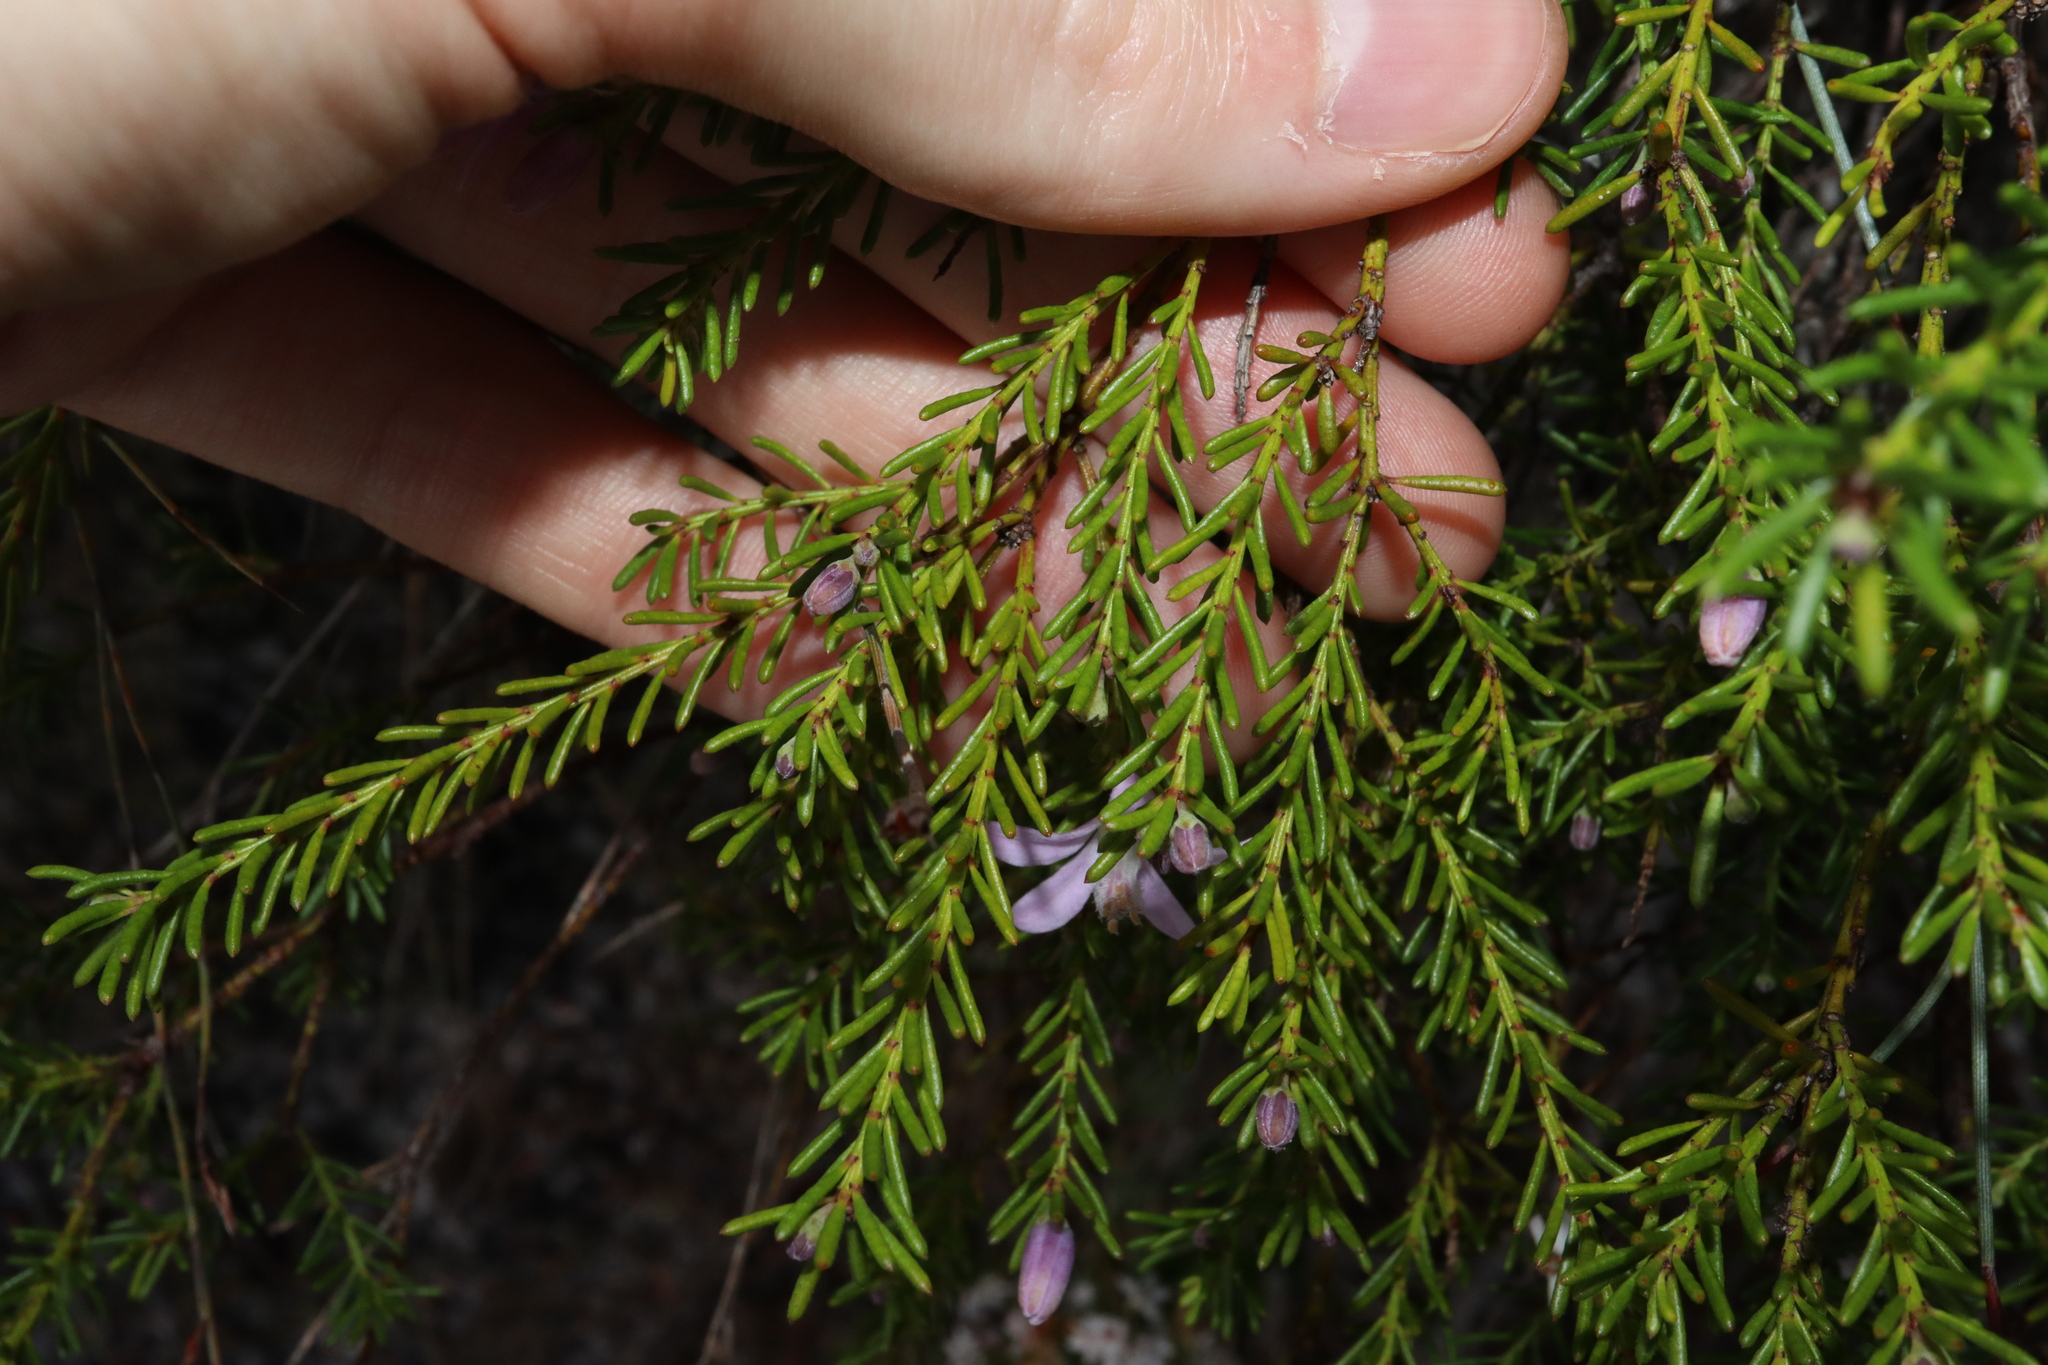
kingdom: Plantae
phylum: Tracheophyta
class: Magnoliopsida
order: Sapindales
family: Rutaceae
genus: Philotheca
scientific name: Philotheca salsolifolia
